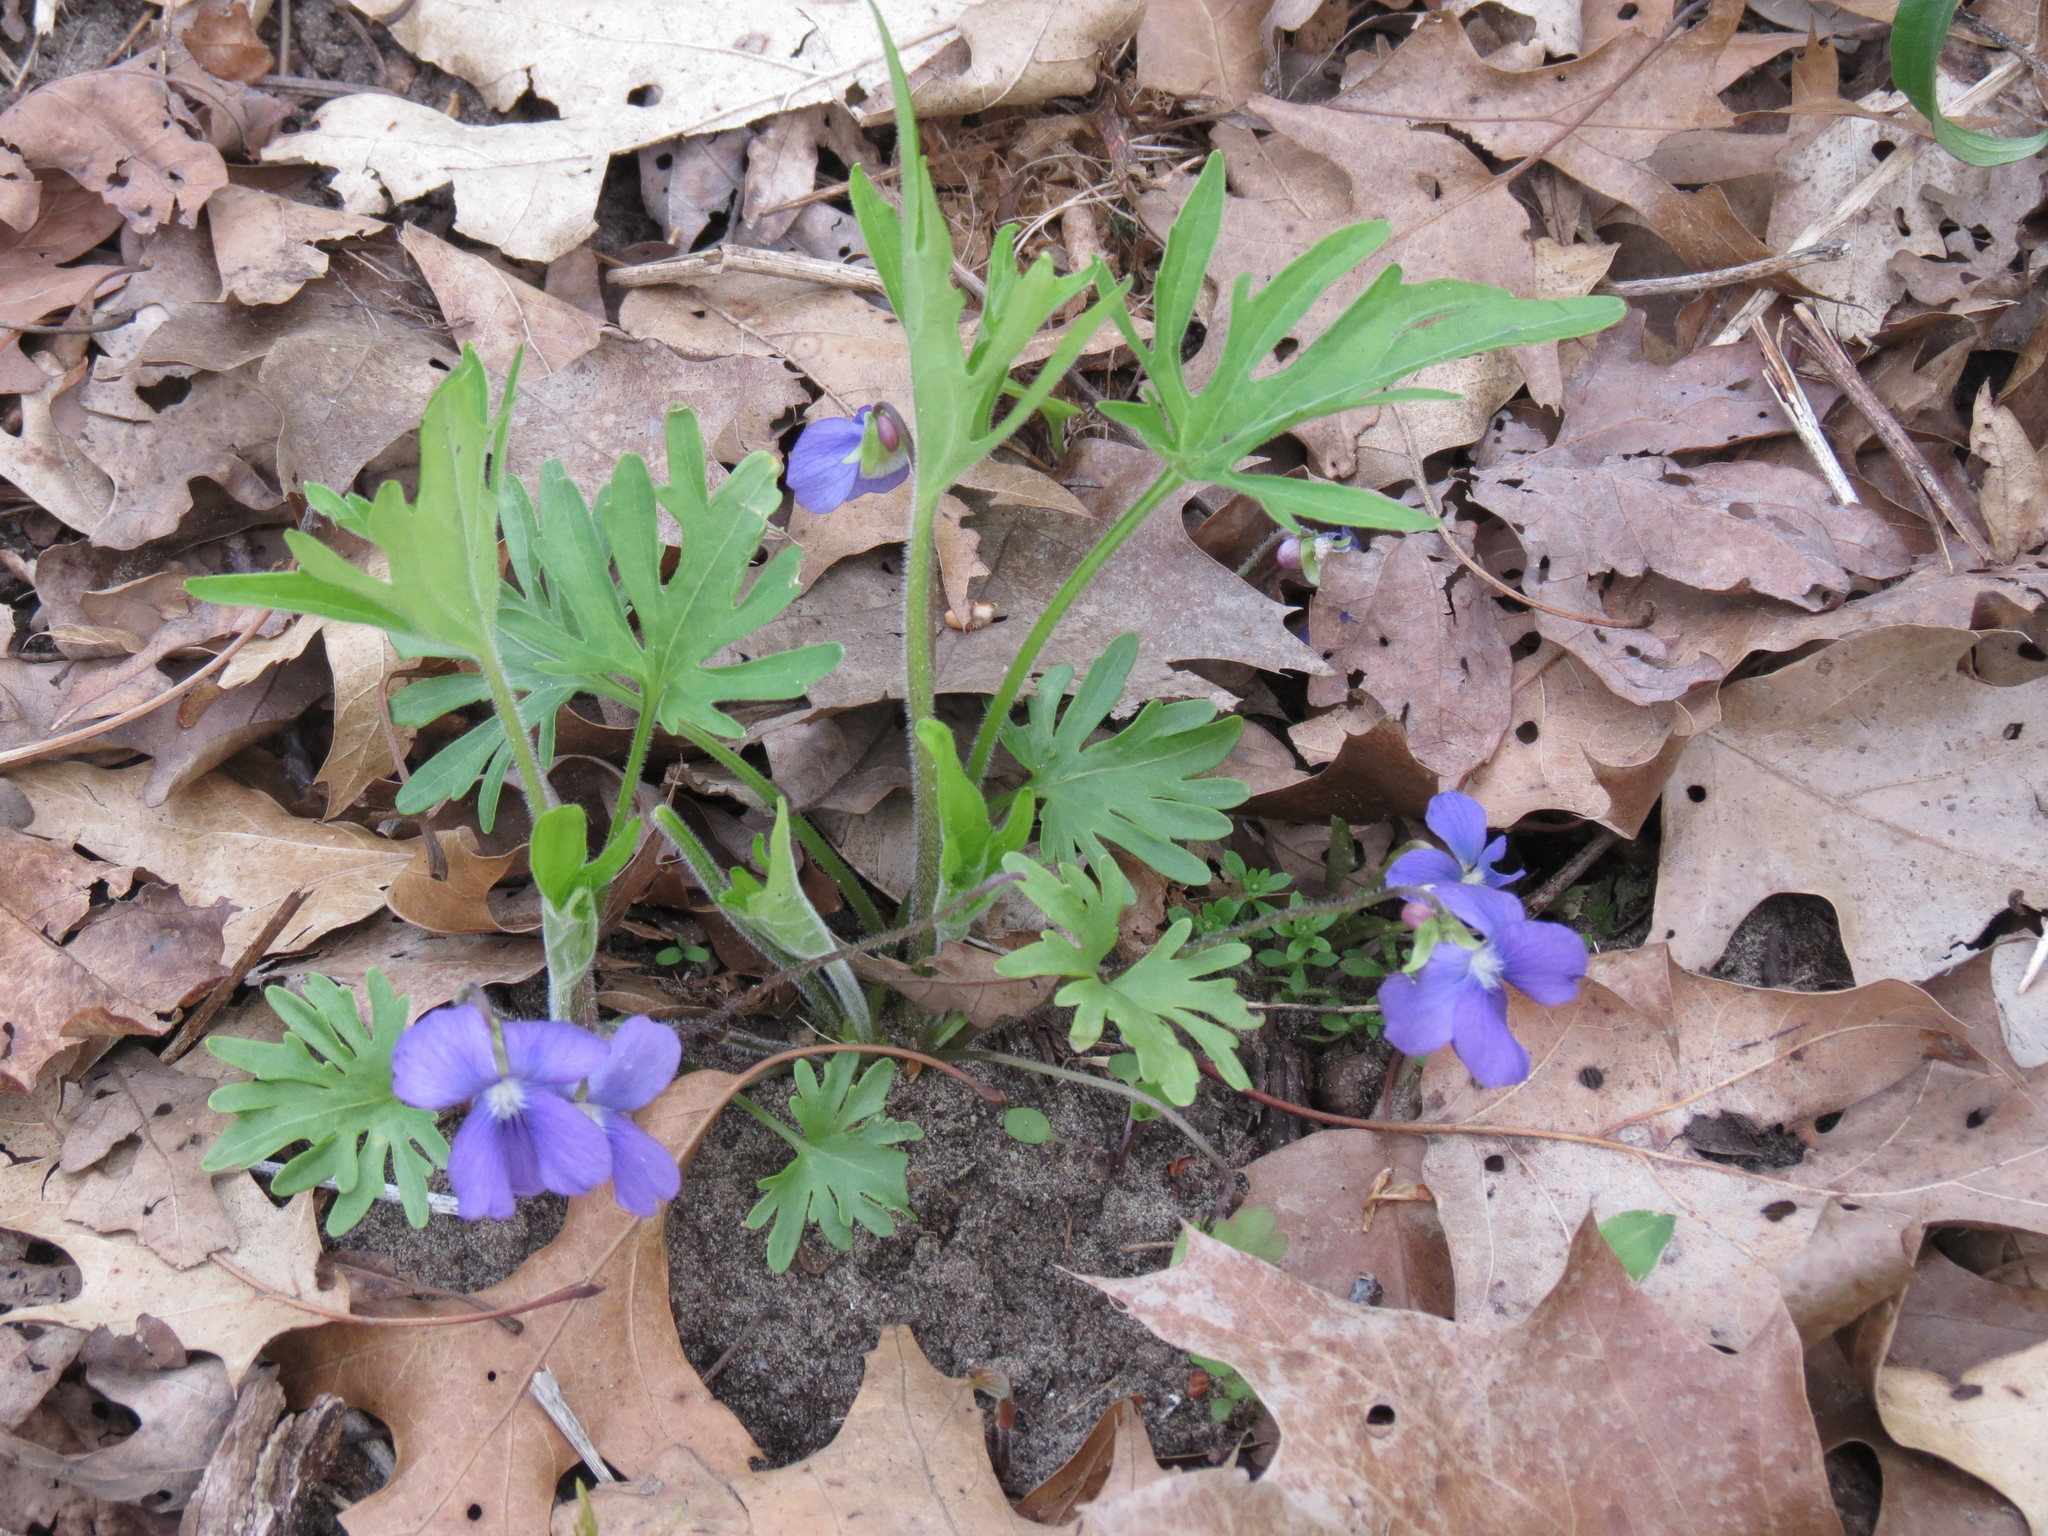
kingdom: Plantae
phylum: Tracheophyta
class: Magnoliopsida
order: Malpighiales
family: Violaceae
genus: Viola
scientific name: Viola baxteri
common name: Baxter's violet
